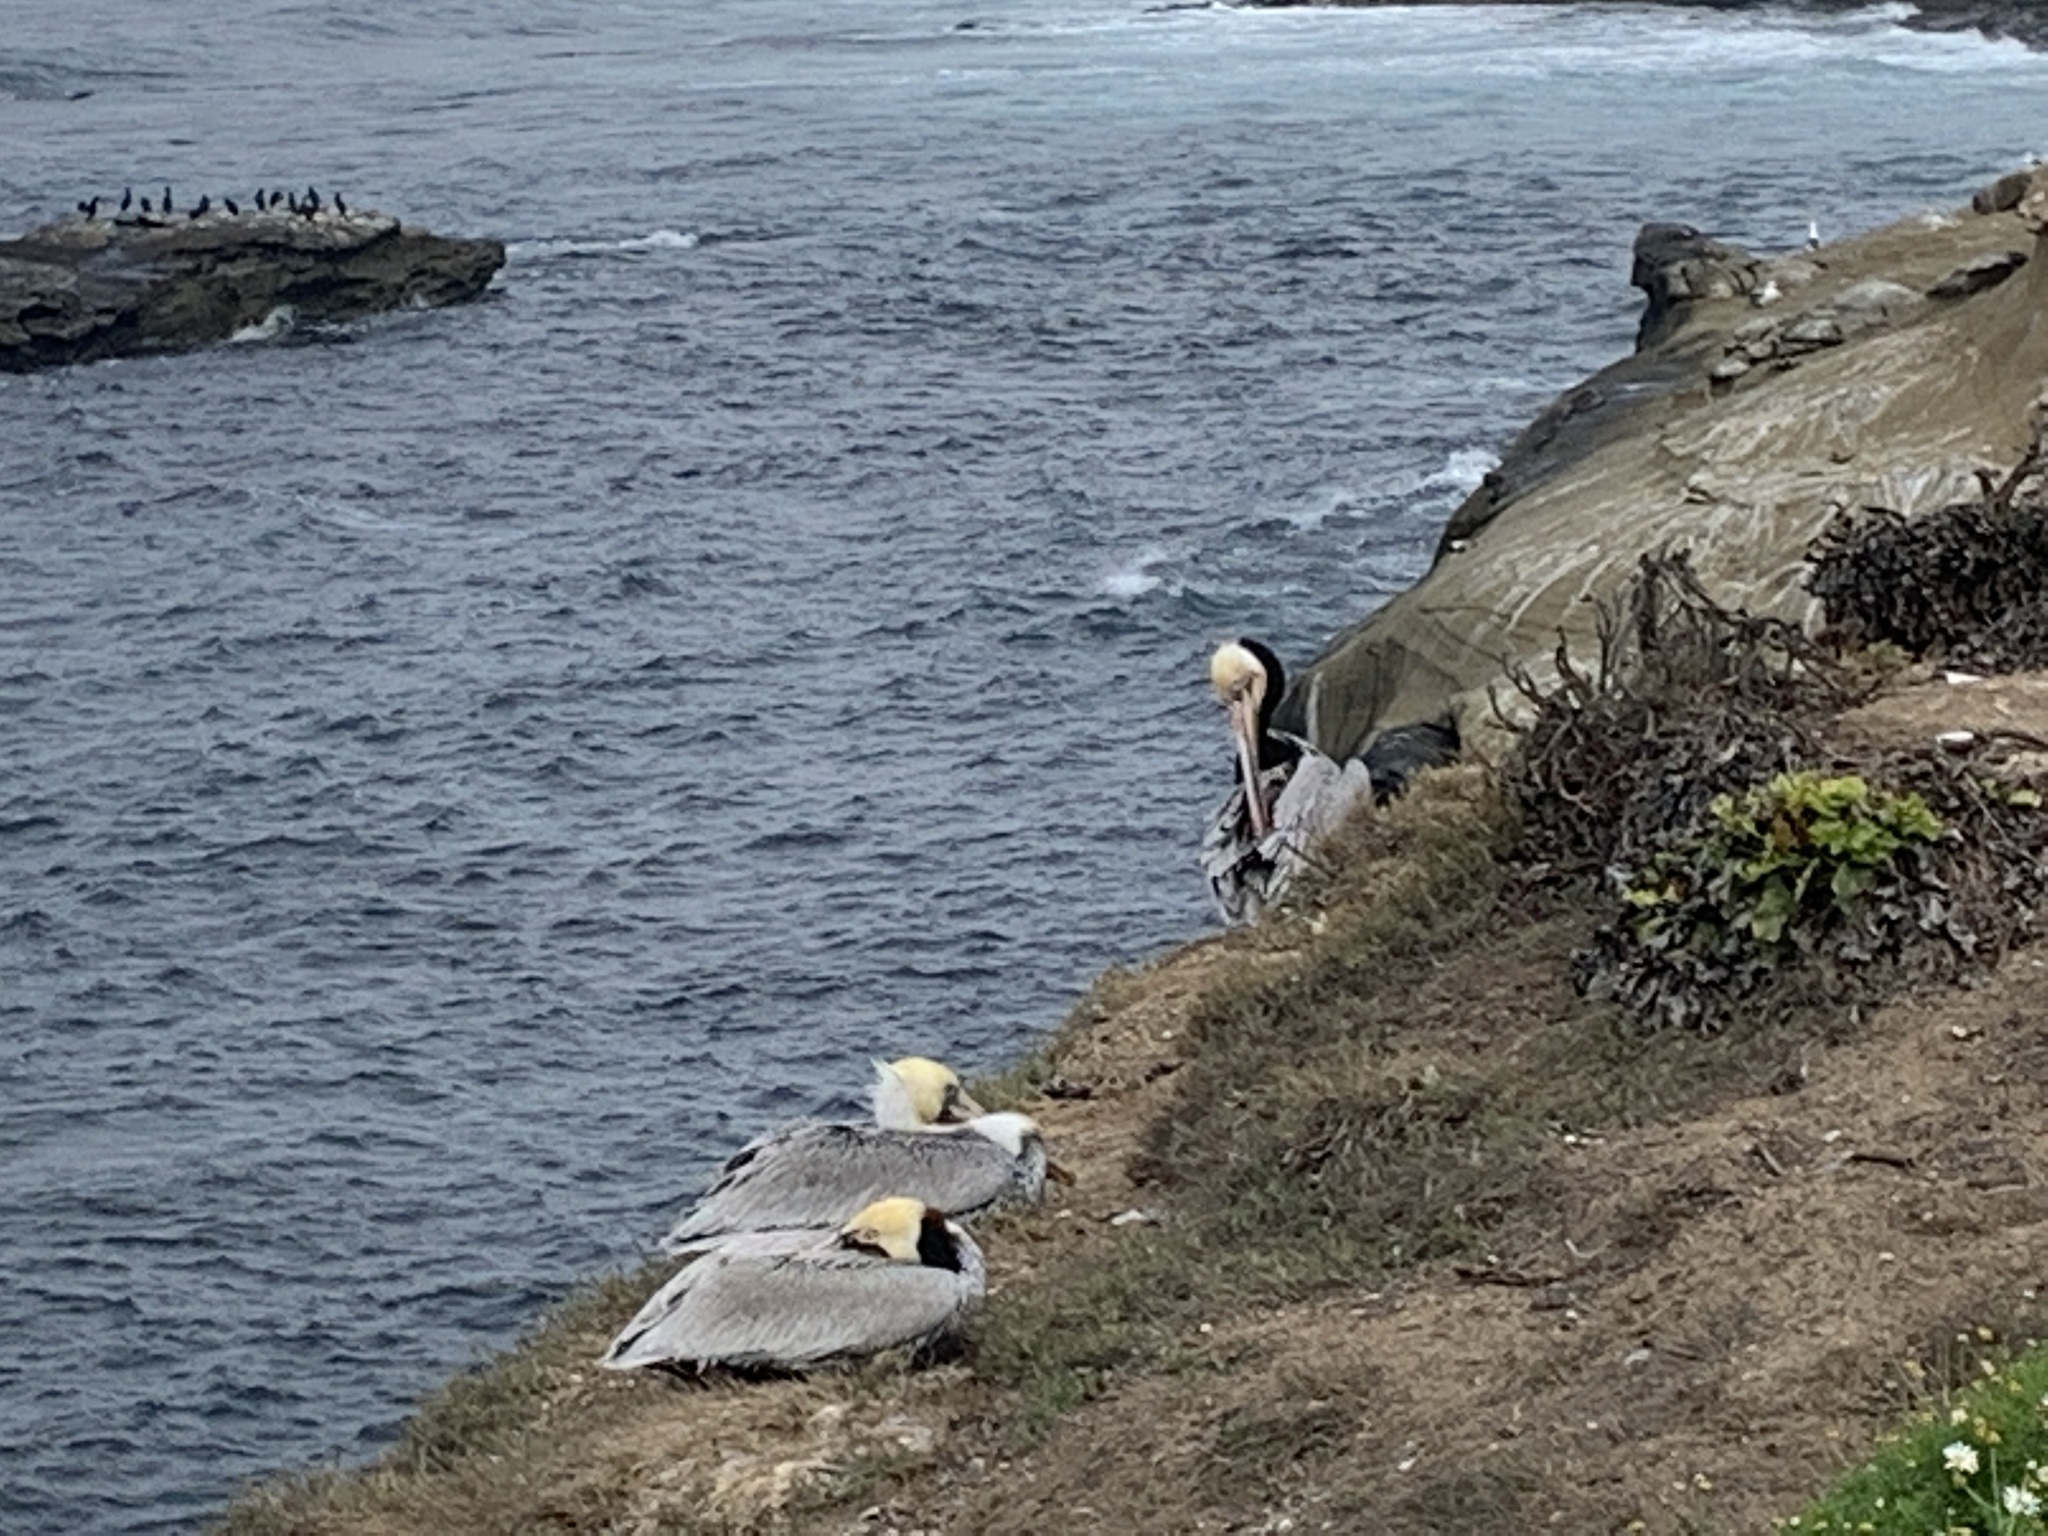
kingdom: Animalia
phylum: Chordata
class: Aves
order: Pelecaniformes
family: Pelecanidae
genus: Pelecanus
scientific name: Pelecanus occidentalis
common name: Brown pelican
